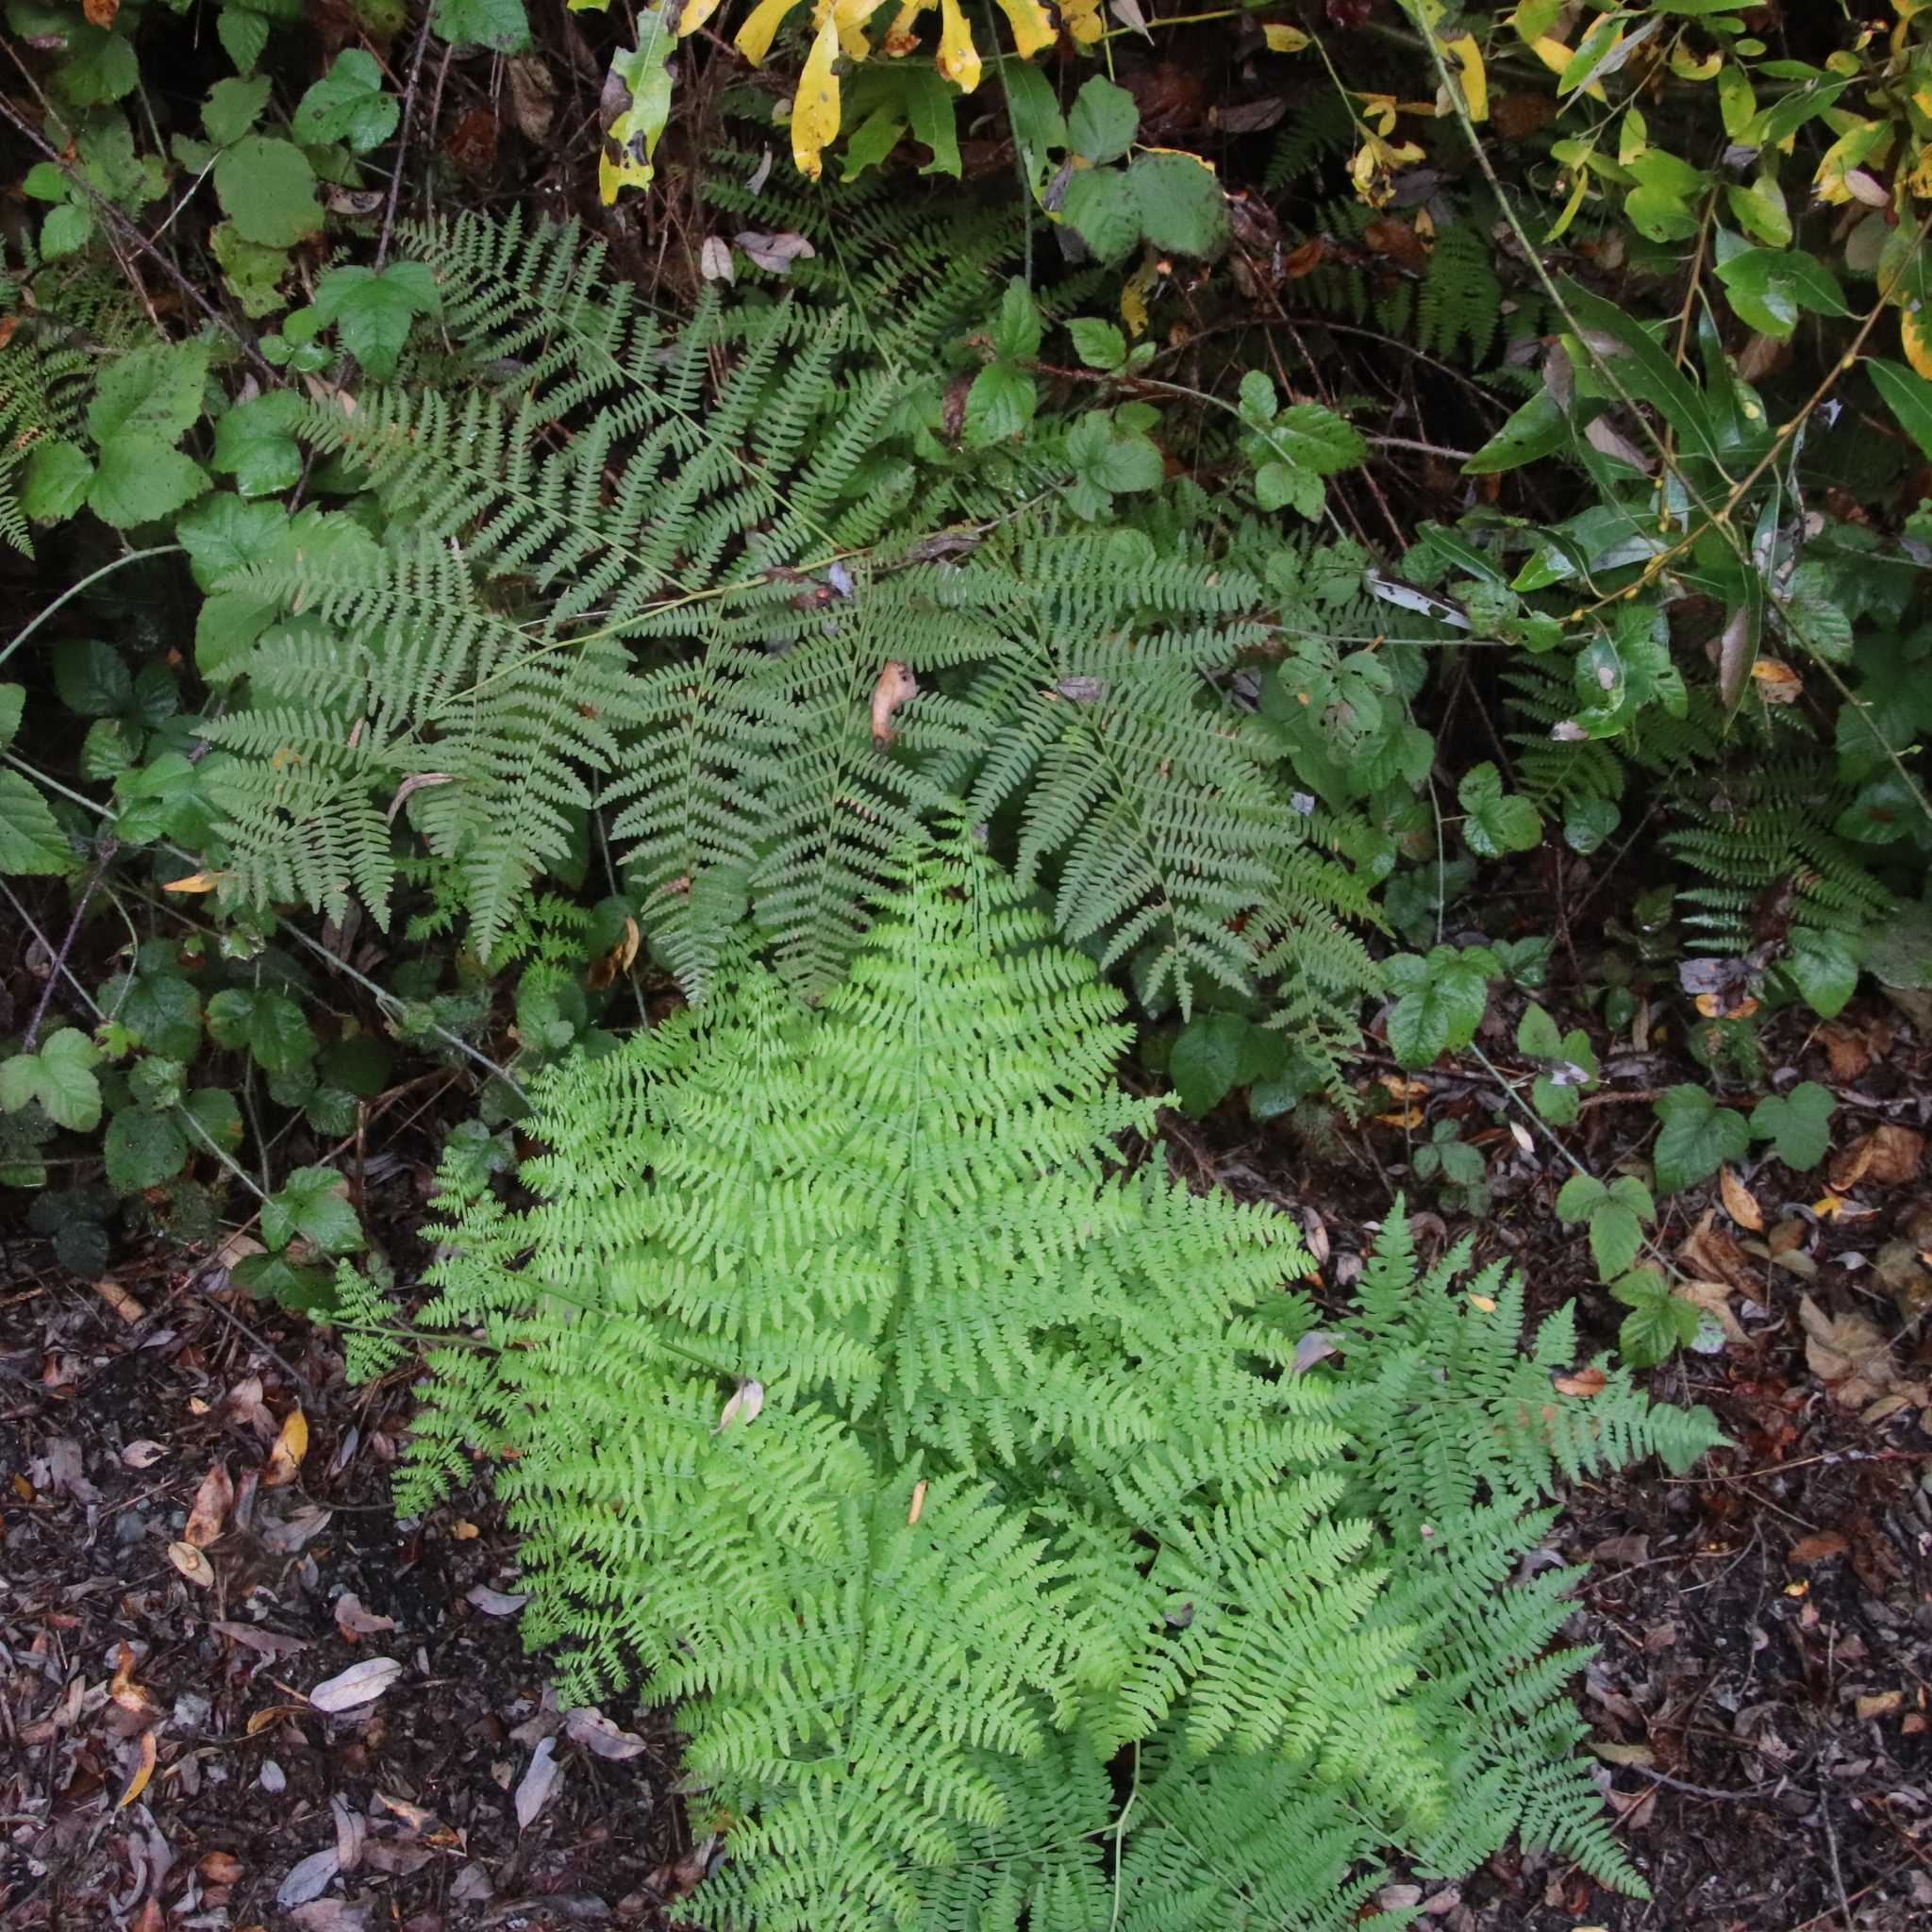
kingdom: Plantae
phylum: Tracheophyta
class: Polypodiopsida
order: Polypodiales
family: Dennstaedtiaceae
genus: Pteridium
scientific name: Pteridium aquilinum
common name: Bracken
